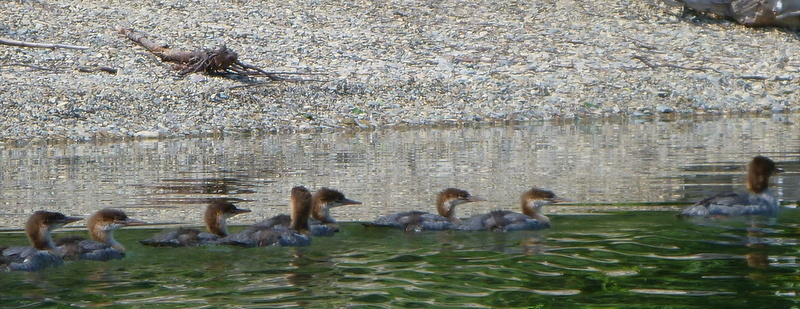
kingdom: Animalia
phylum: Chordata
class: Aves
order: Anseriformes
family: Anatidae
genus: Mergus
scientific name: Mergus merganser
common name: Common merganser
